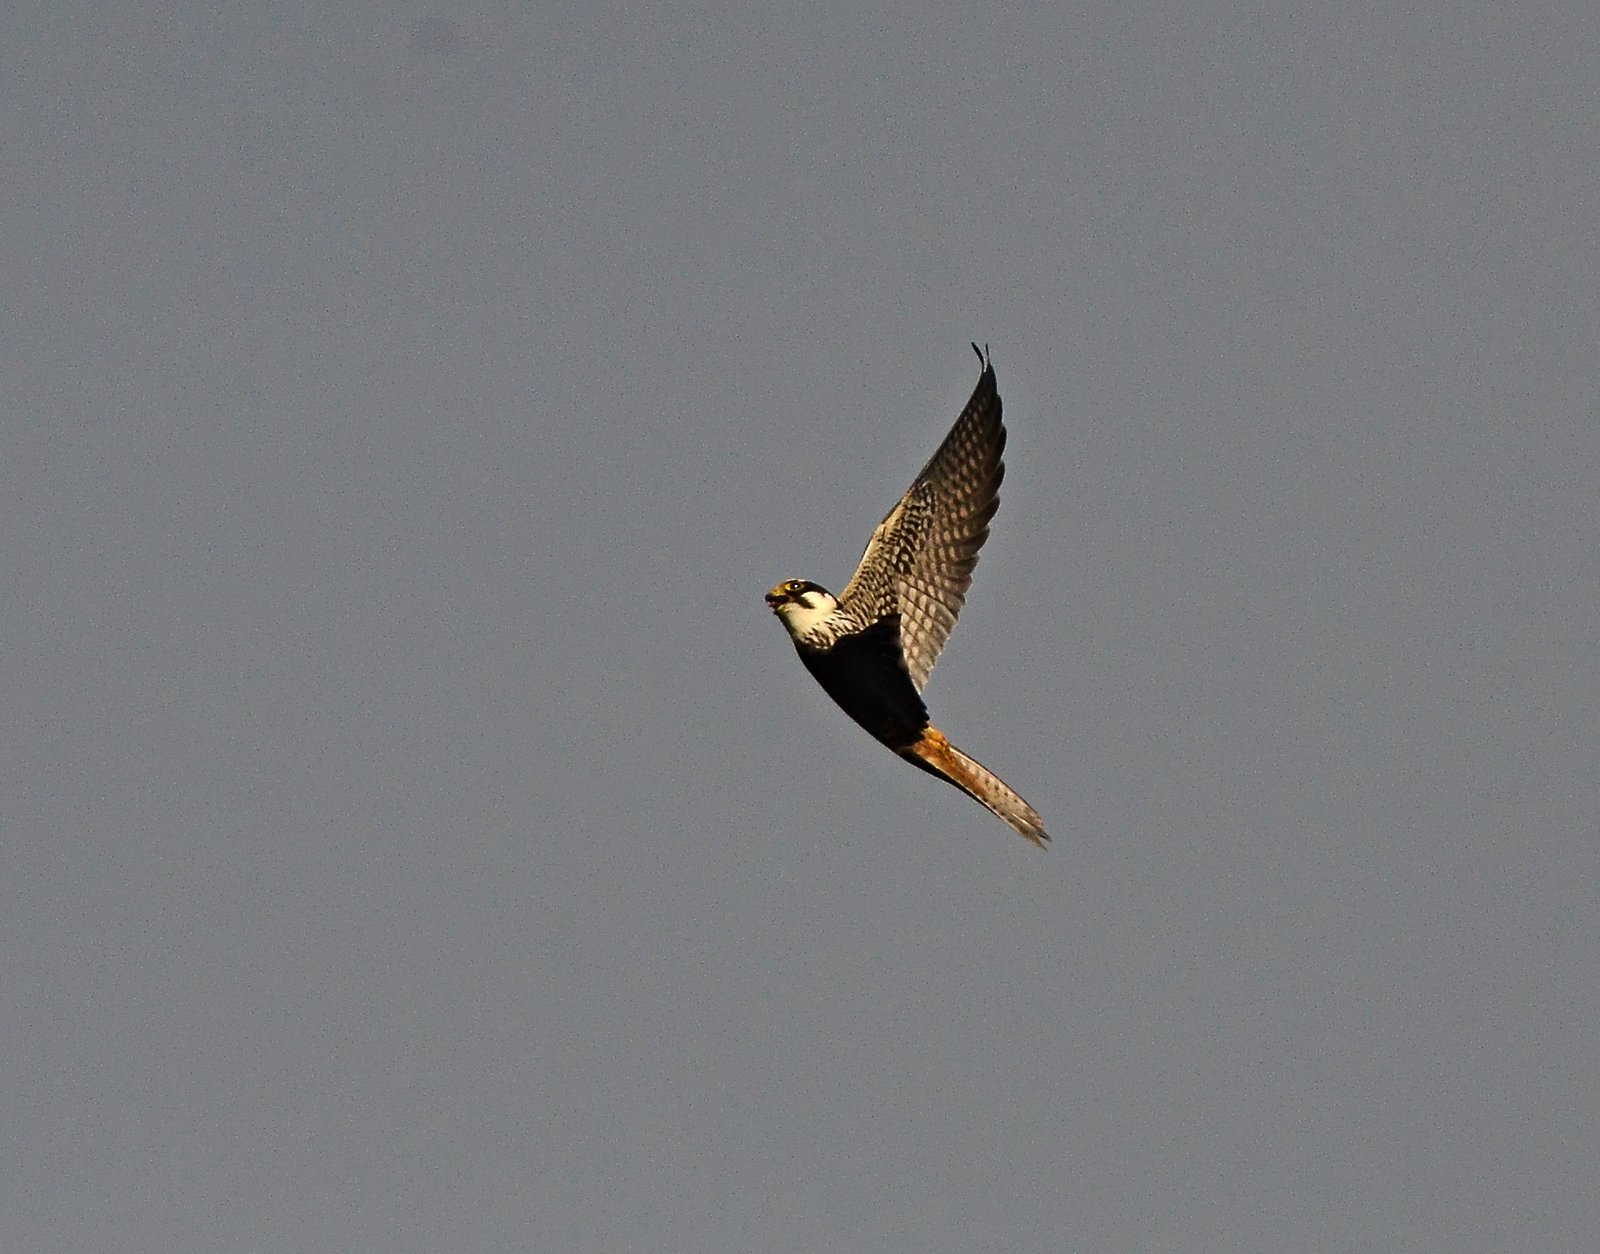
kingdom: Animalia
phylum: Chordata
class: Aves
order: Falconiformes
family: Falconidae
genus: Falco
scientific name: Falco subbuteo
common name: Eurasian hobby
